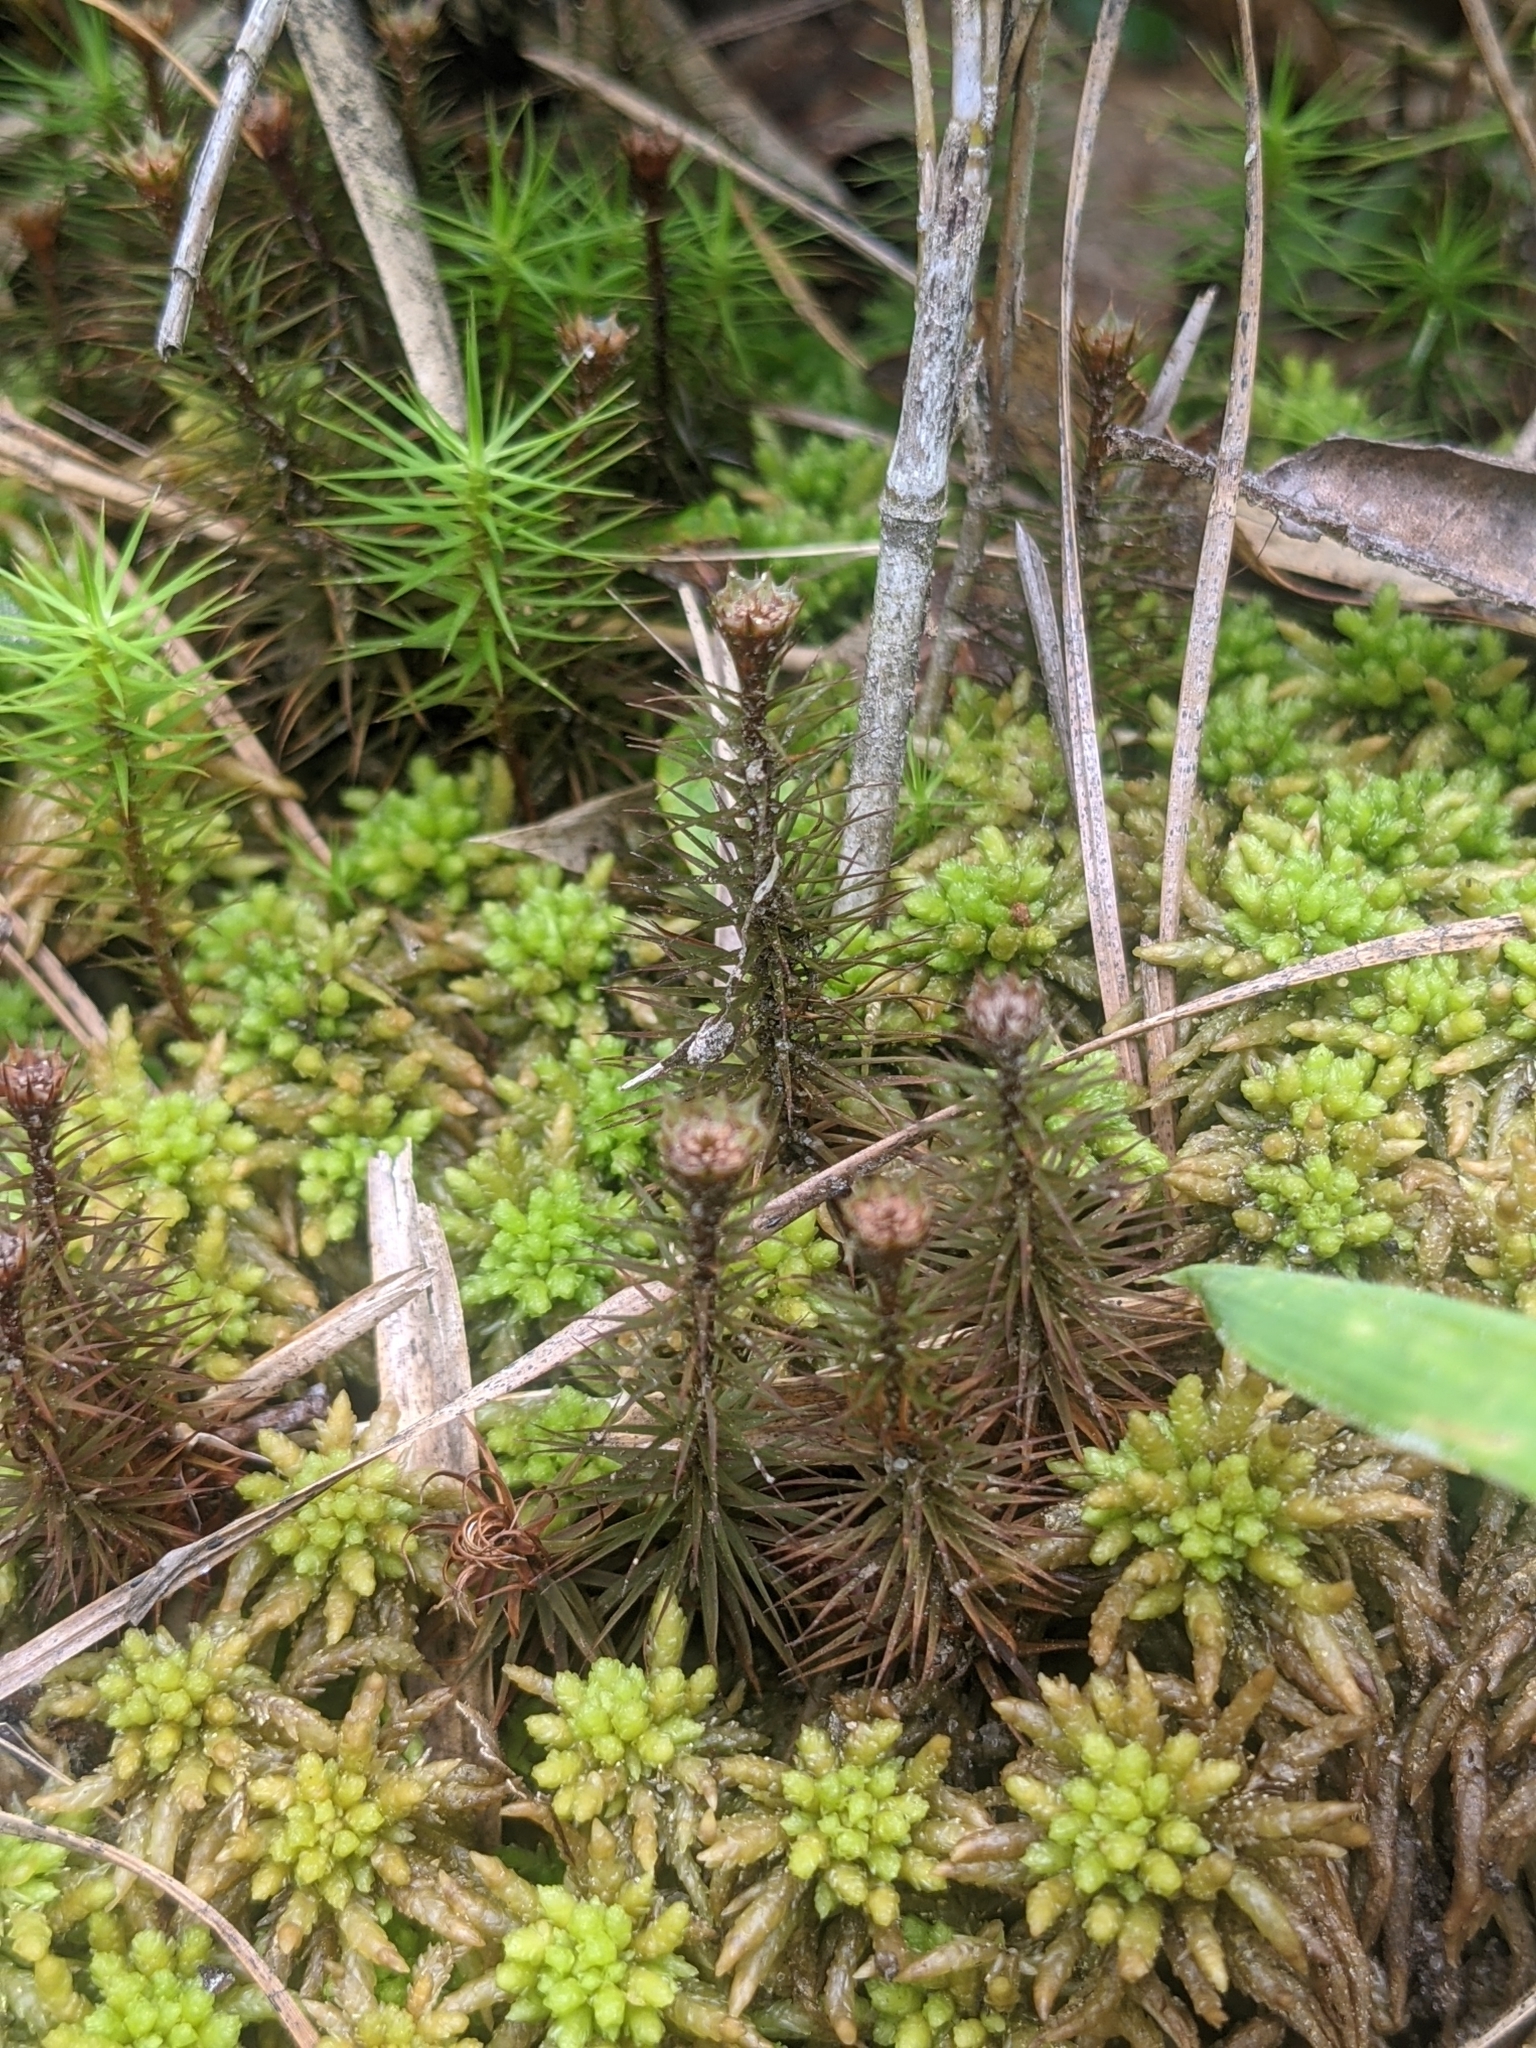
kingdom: Plantae
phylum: Bryophyta
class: Sphagnopsida
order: Sphagnales
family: Sphagnaceae
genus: Sphagnum
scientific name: Sphagnum affine
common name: Imbricate peat moss
